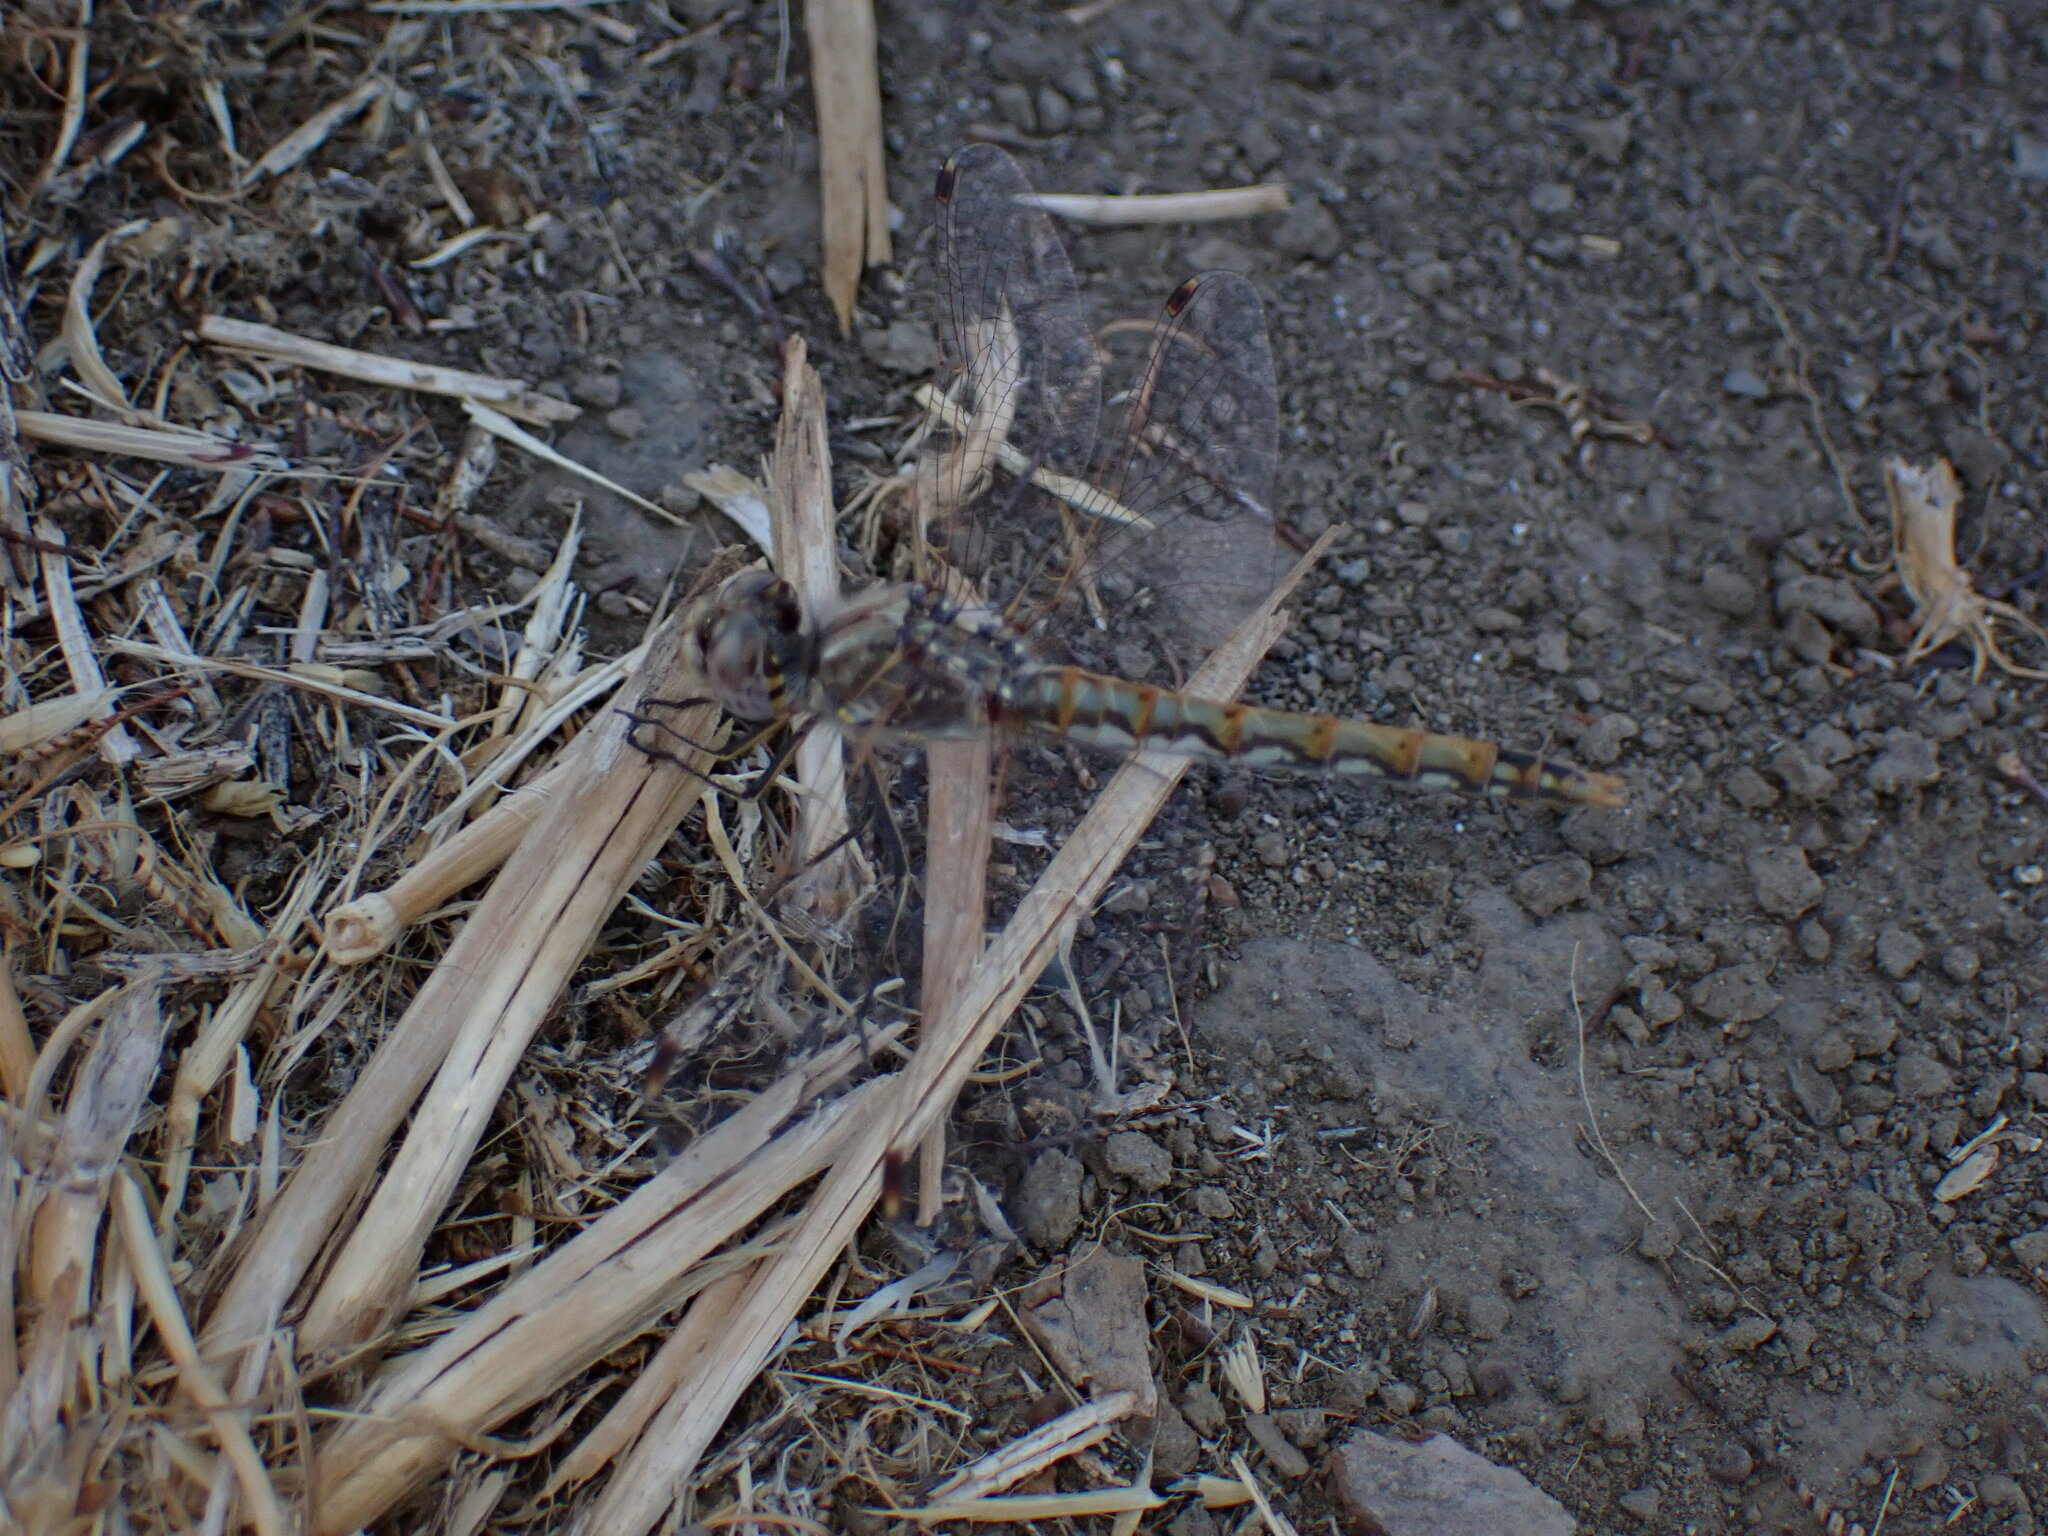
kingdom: Animalia
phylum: Arthropoda
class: Insecta
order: Odonata
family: Libellulidae
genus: Sympetrum
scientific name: Sympetrum corruptum
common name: Variegated meadowhawk
